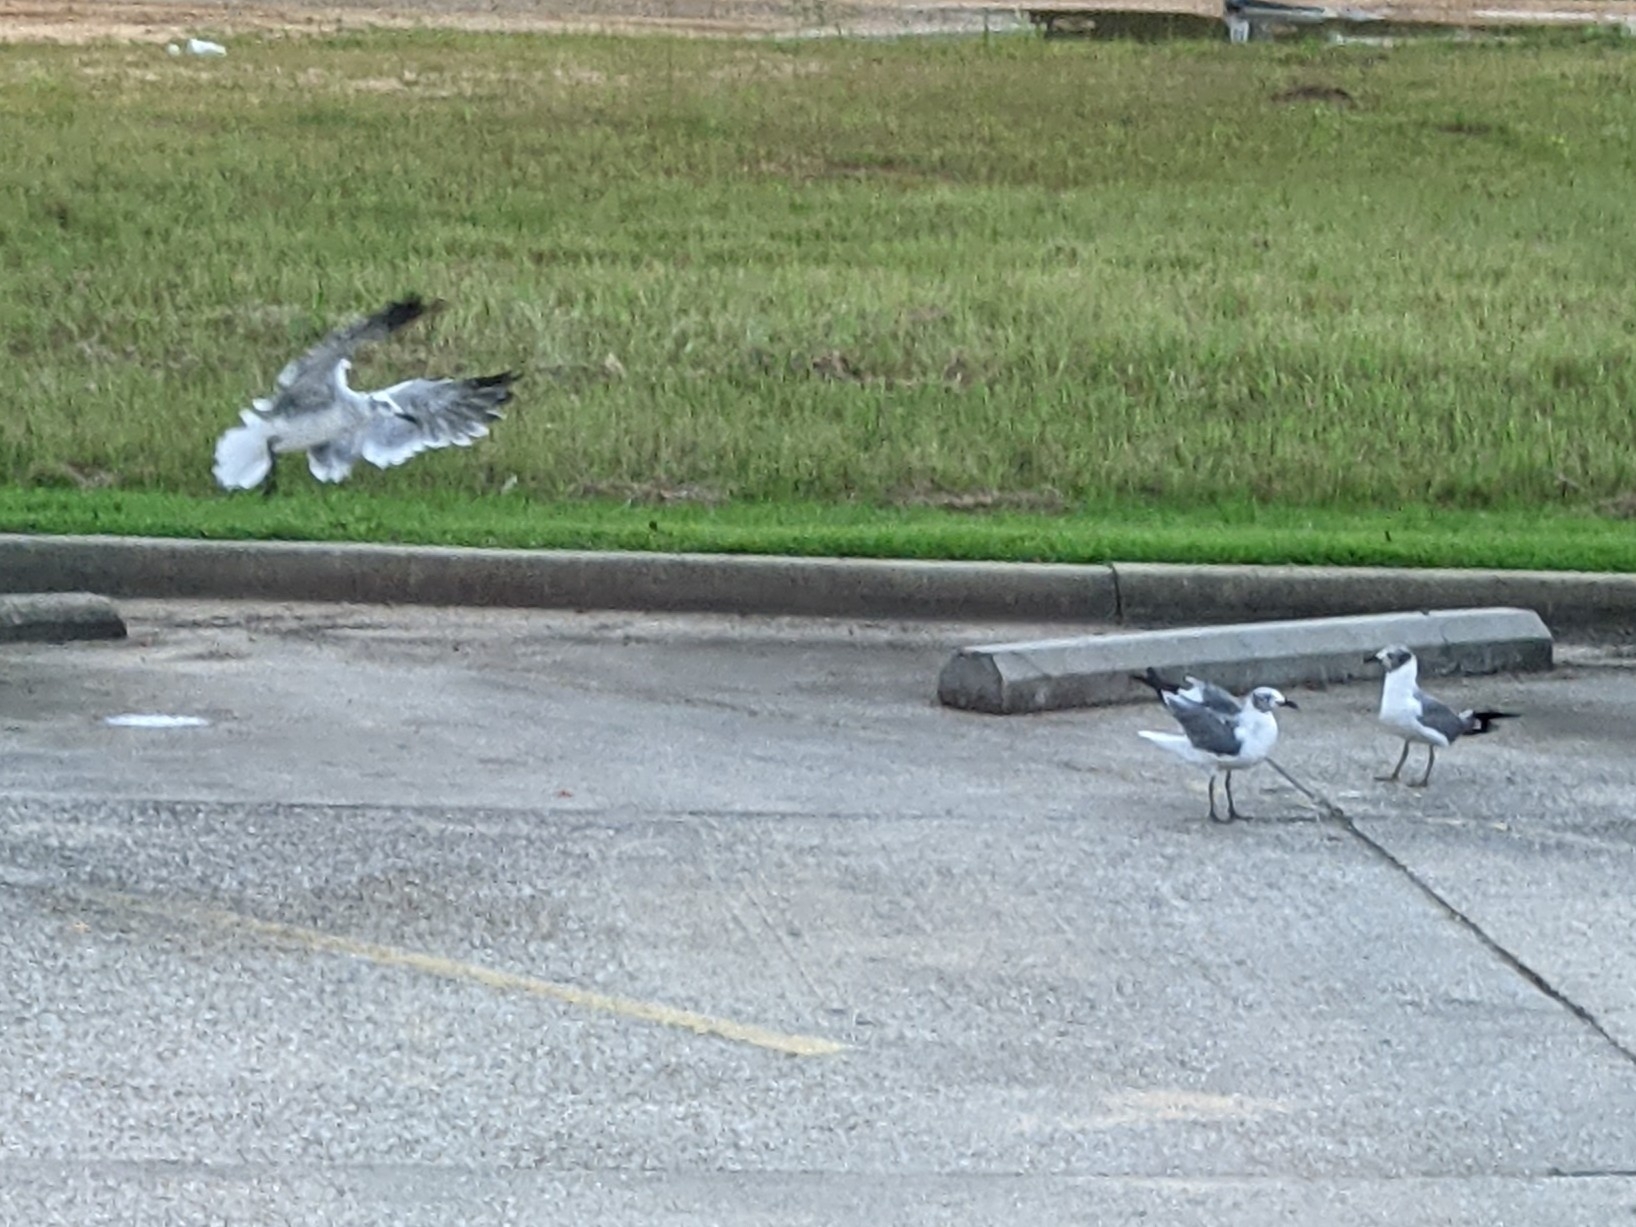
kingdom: Animalia
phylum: Chordata
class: Aves
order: Charadriiformes
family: Laridae
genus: Leucophaeus
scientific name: Leucophaeus atricilla
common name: Laughing gull
